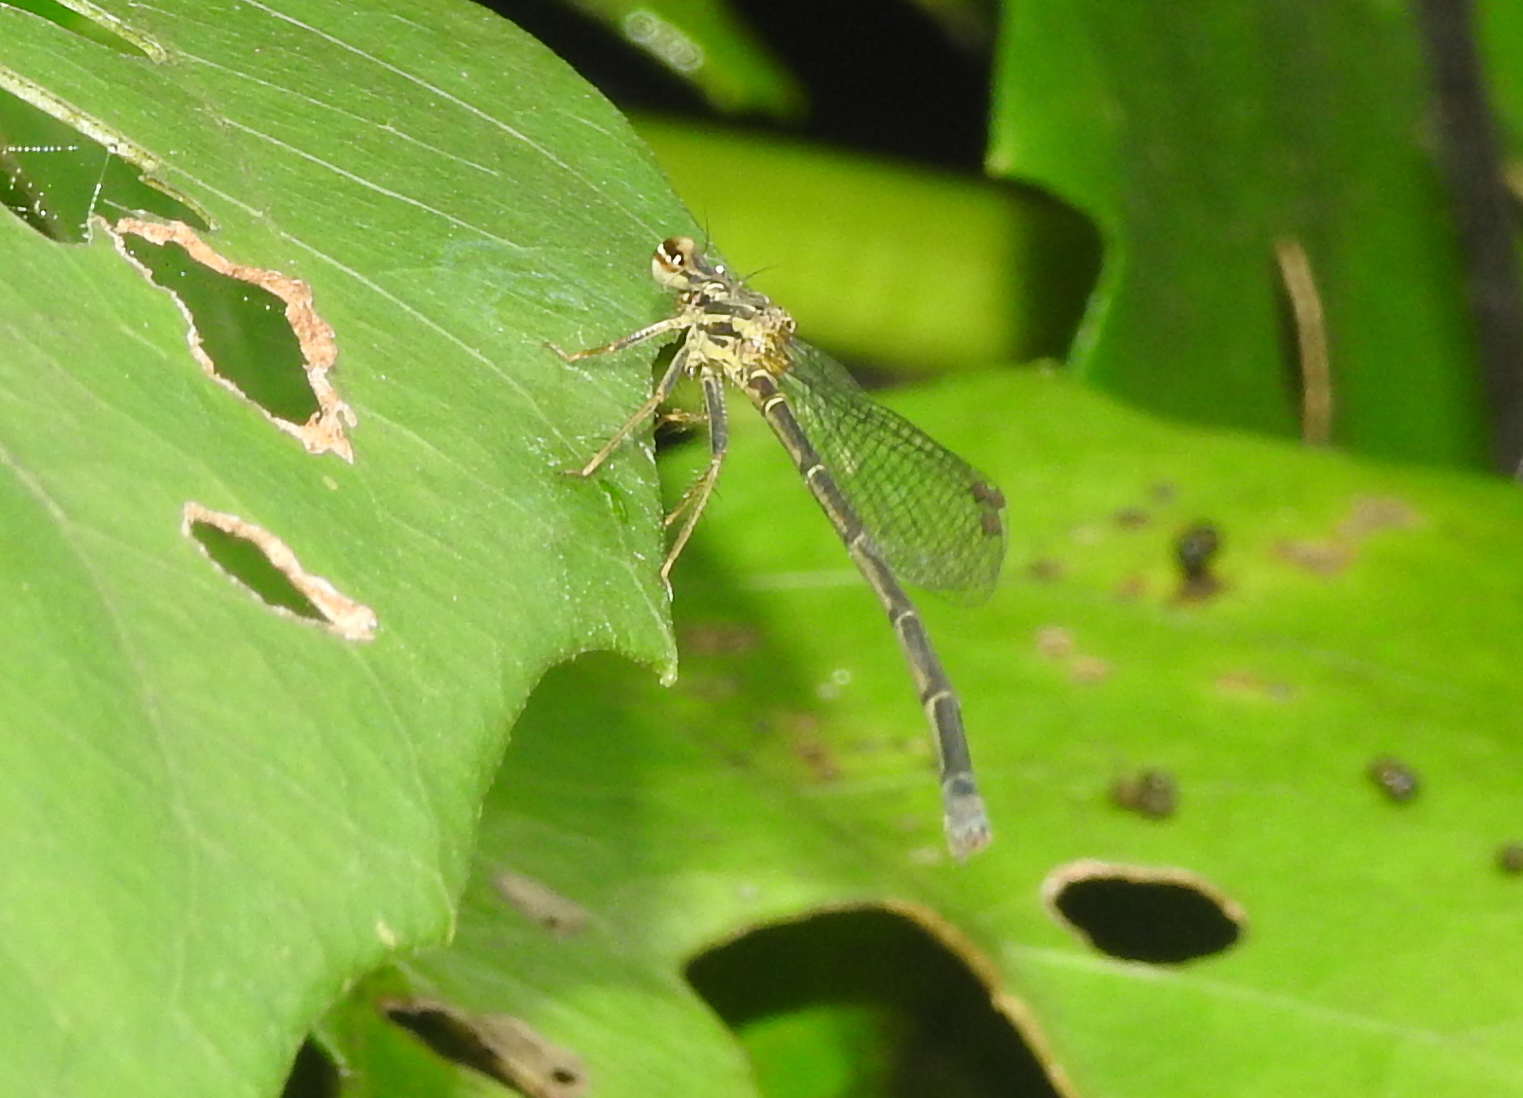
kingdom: Animalia
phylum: Arthropoda
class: Insecta
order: Odonata
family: Platycnemididae
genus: Copera
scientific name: Copera marginipes
